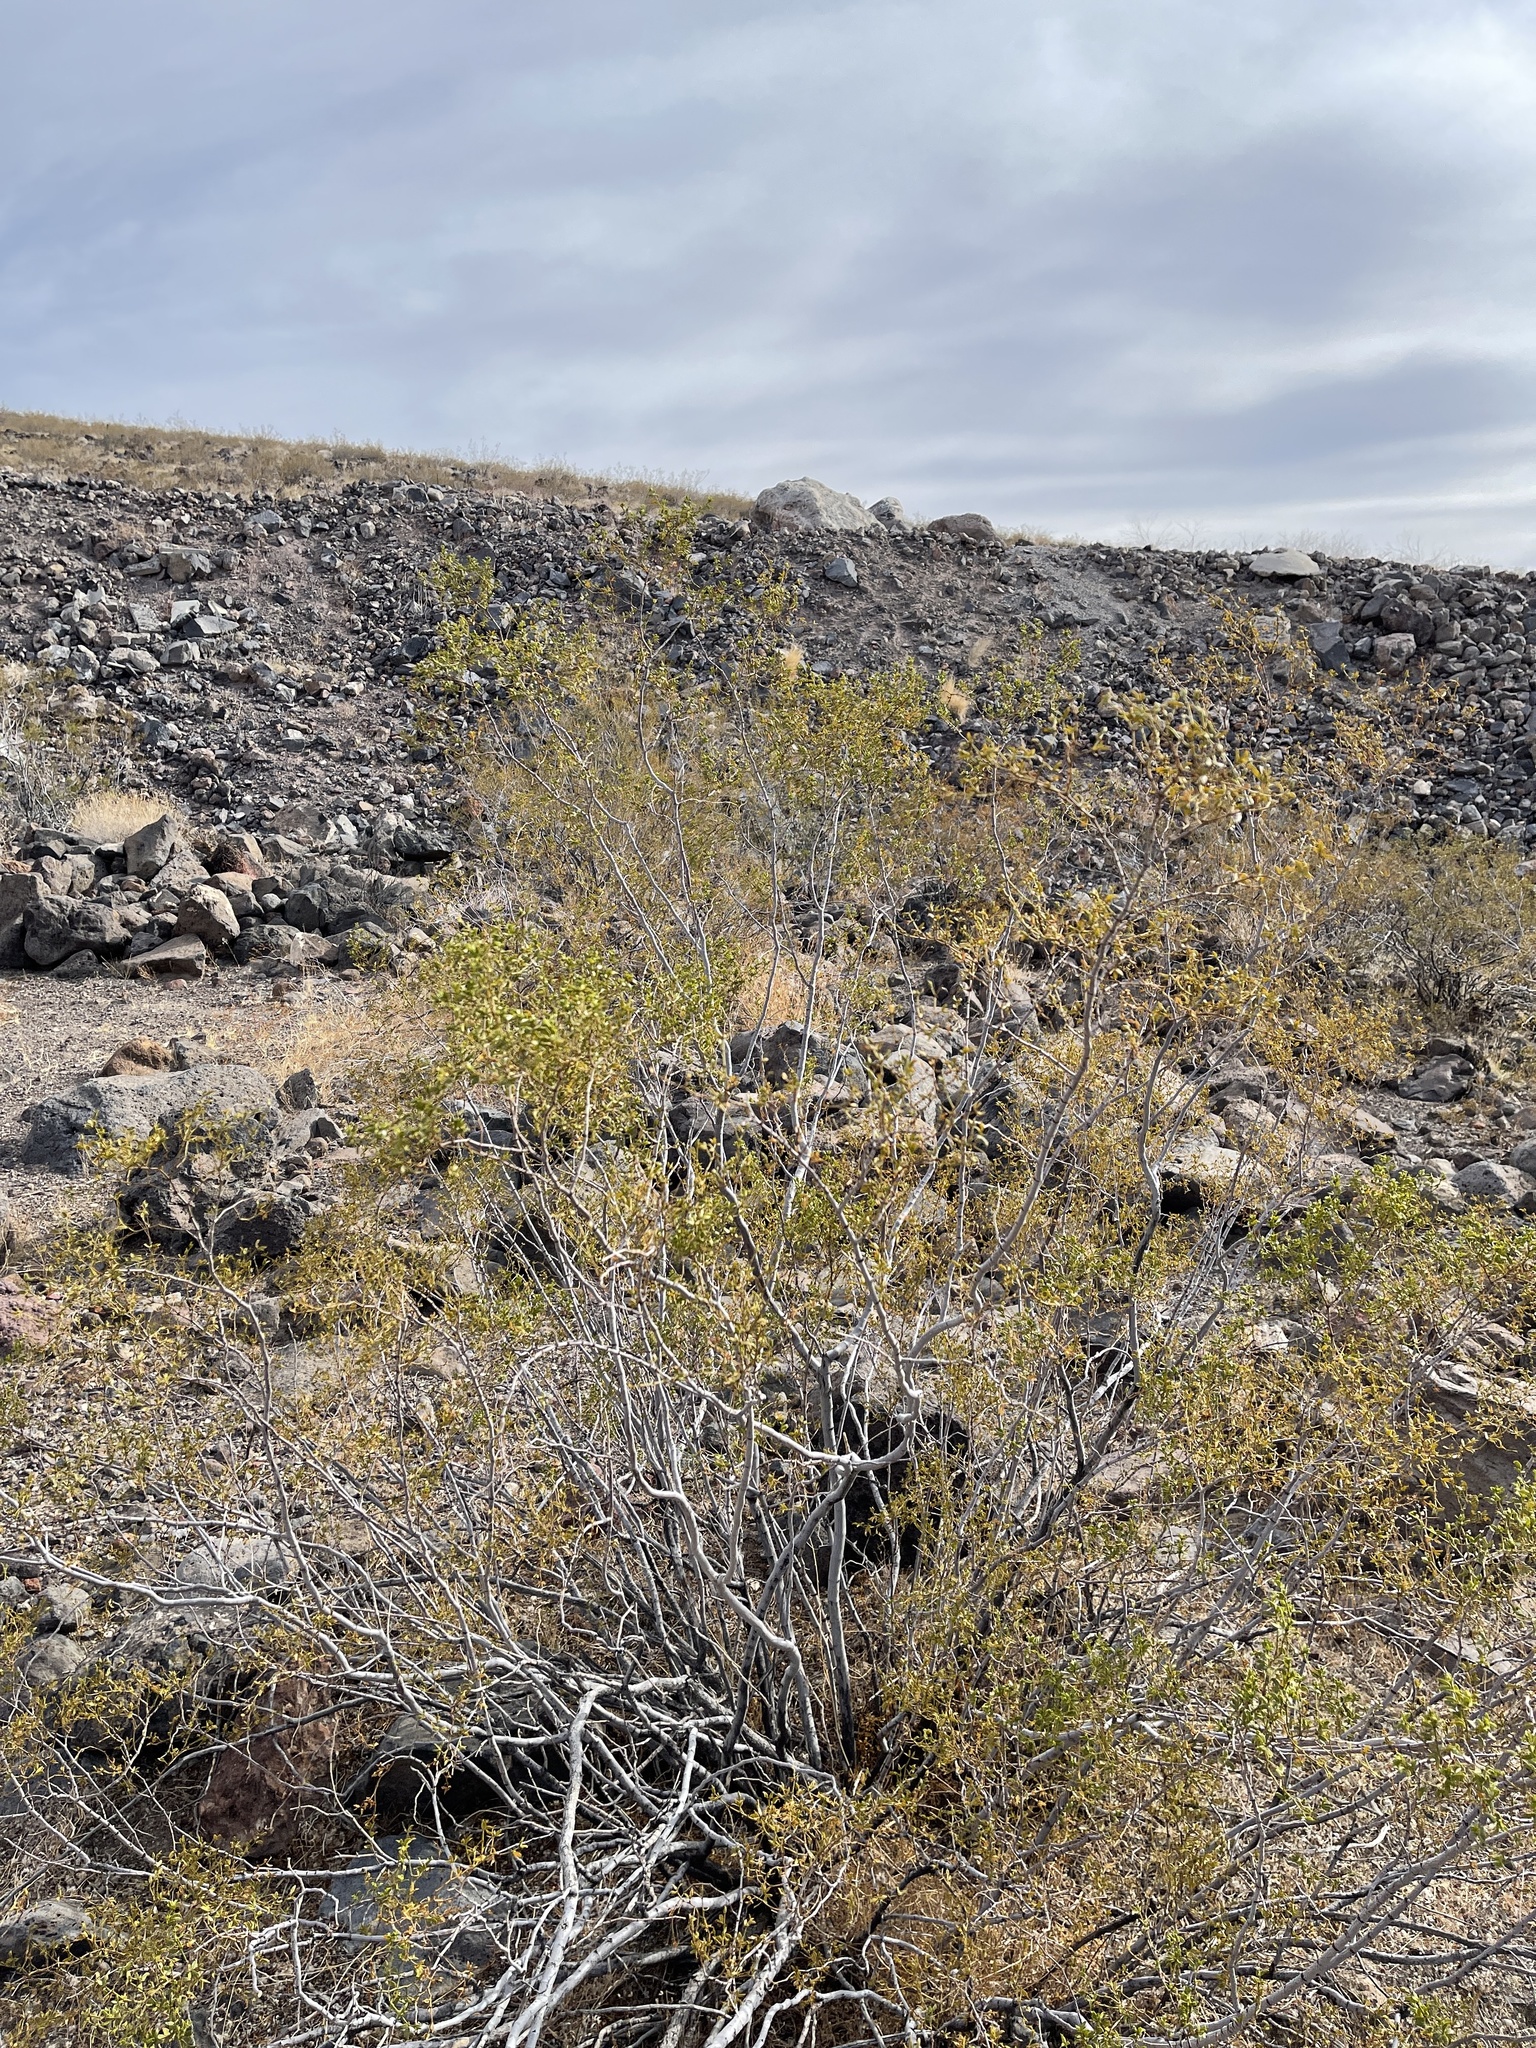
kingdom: Plantae
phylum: Tracheophyta
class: Magnoliopsida
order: Zygophyllales
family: Zygophyllaceae
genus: Larrea
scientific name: Larrea tridentata
